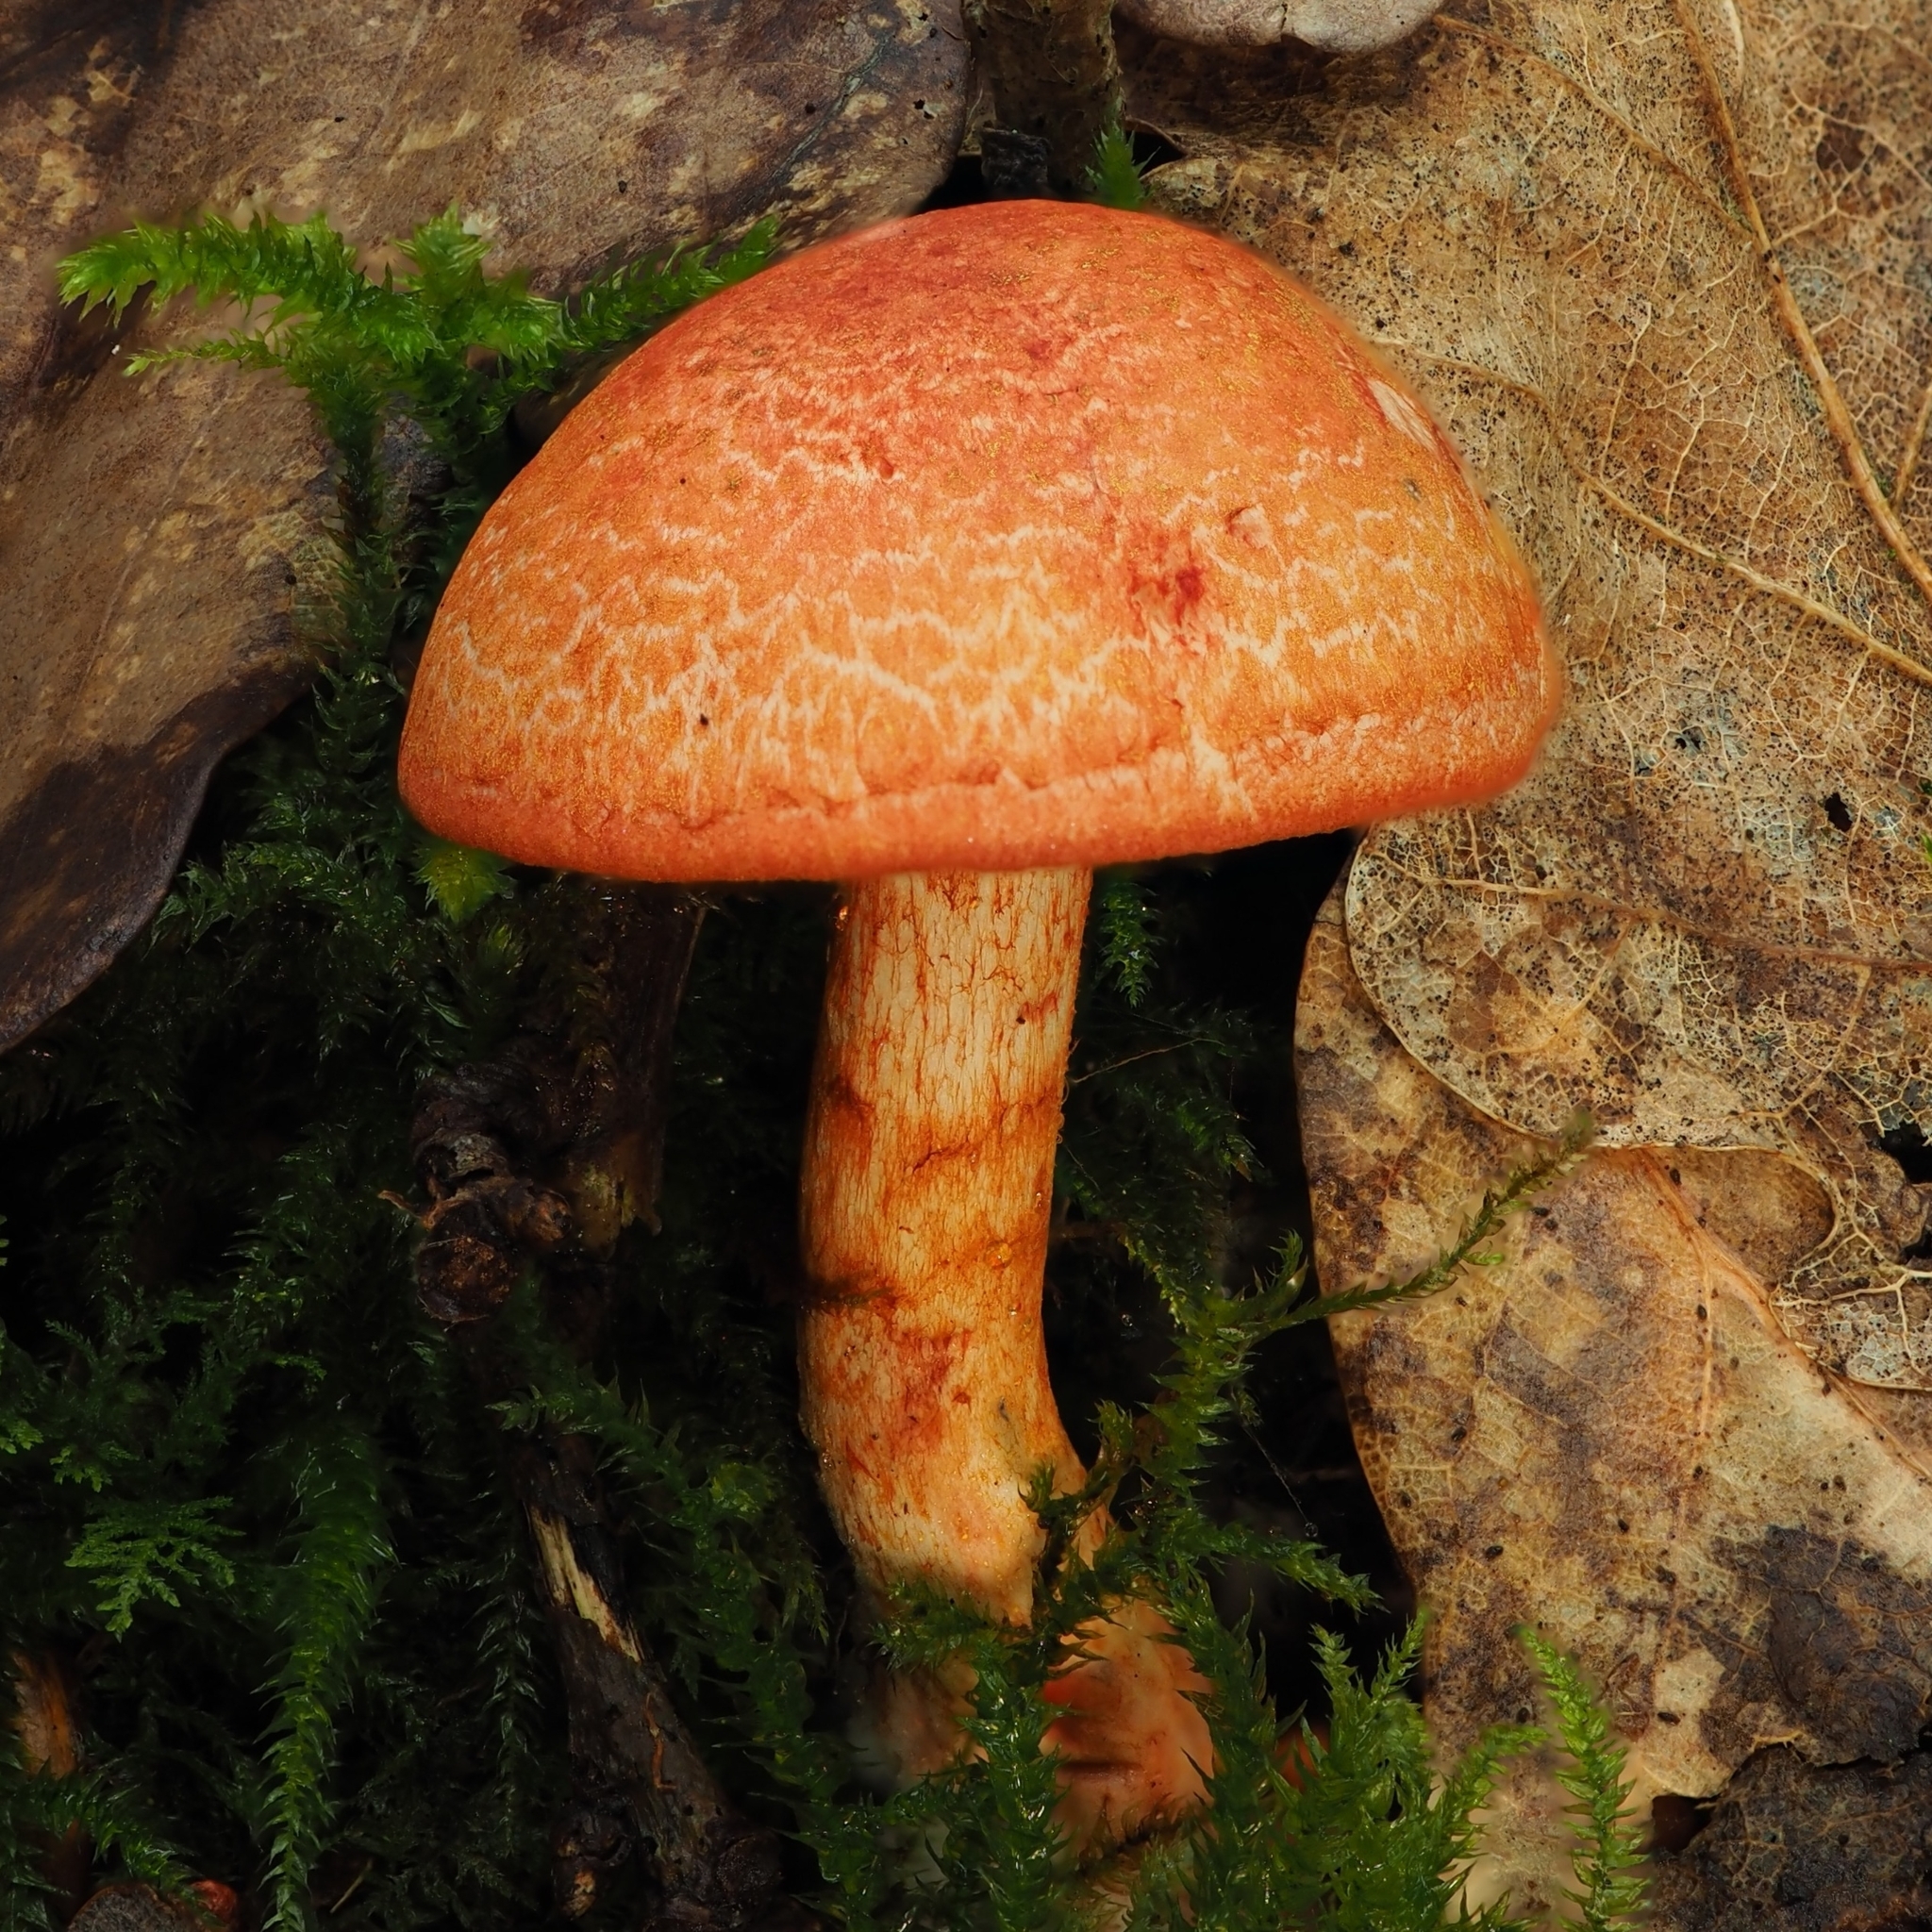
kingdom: Fungi
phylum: Basidiomycota
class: Agaricomycetes
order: Agaricales
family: Cortinariaceae
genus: Cortinarius
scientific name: Cortinarius bolaris
